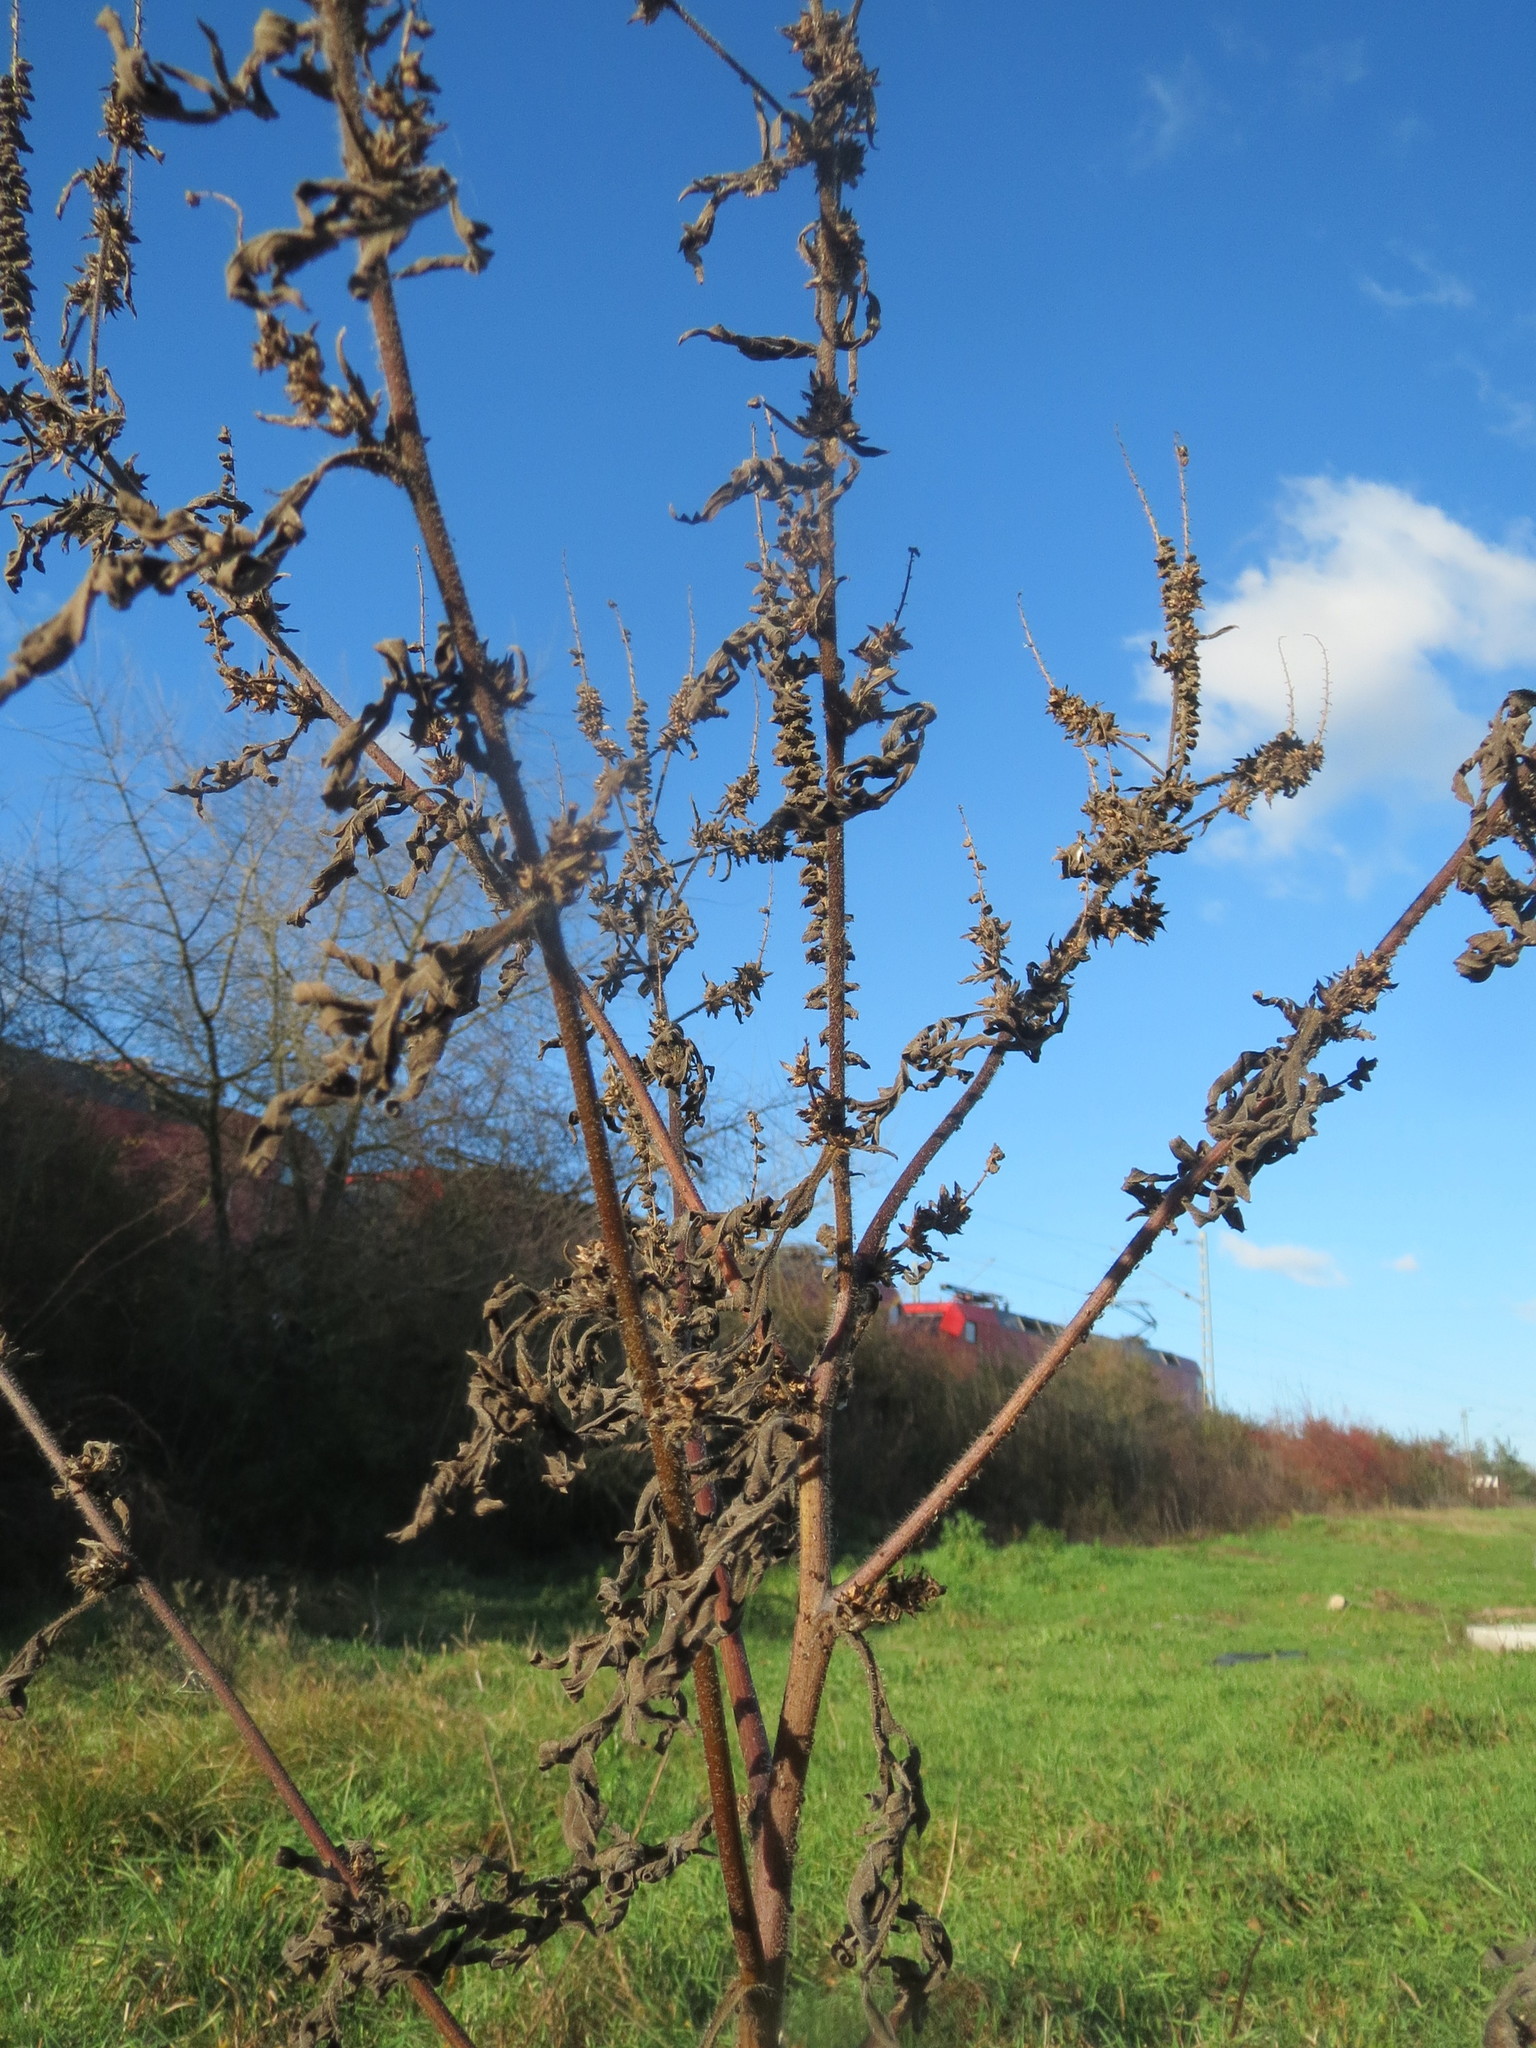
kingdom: Plantae
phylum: Tracheophyta
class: Magnoliopsida
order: Asterales
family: Asteraceae
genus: Ambrosia
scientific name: Ambrosia artemisiifolia
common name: Annual ragweed
